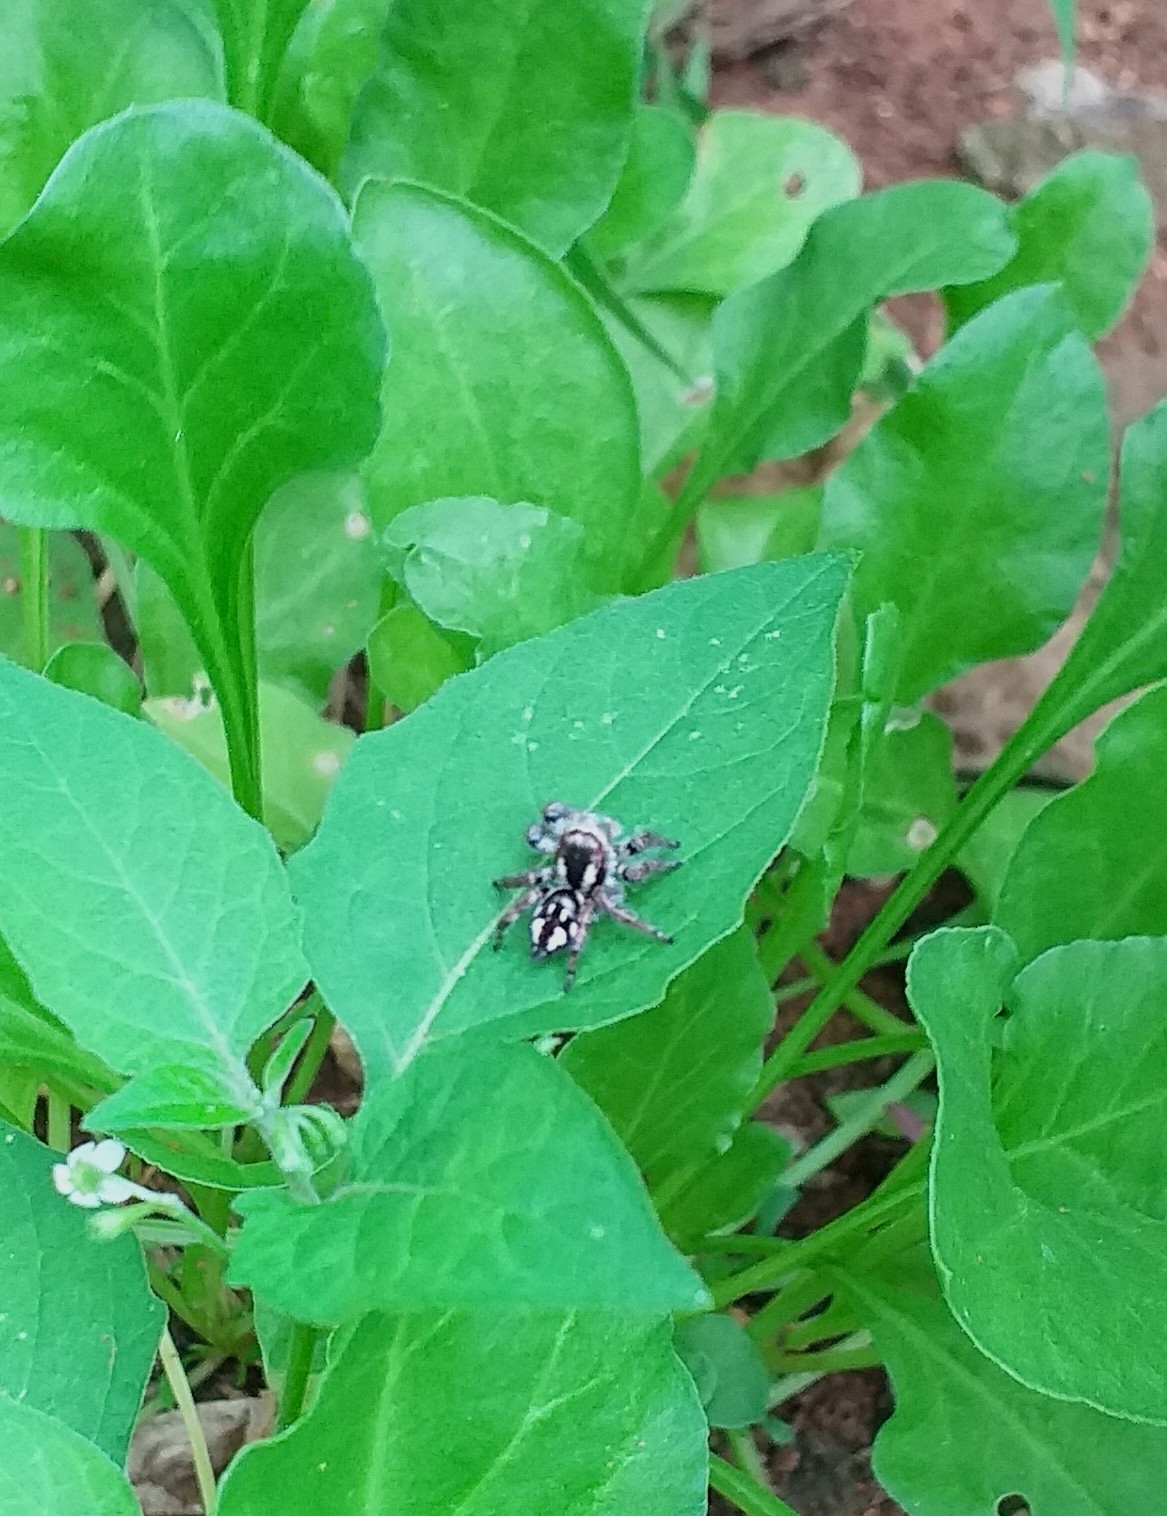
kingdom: Animalia
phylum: Arthropoda
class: Arachnida
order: Araneae
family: Salticidae
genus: Carrhotus
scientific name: Carrhotus viduus
